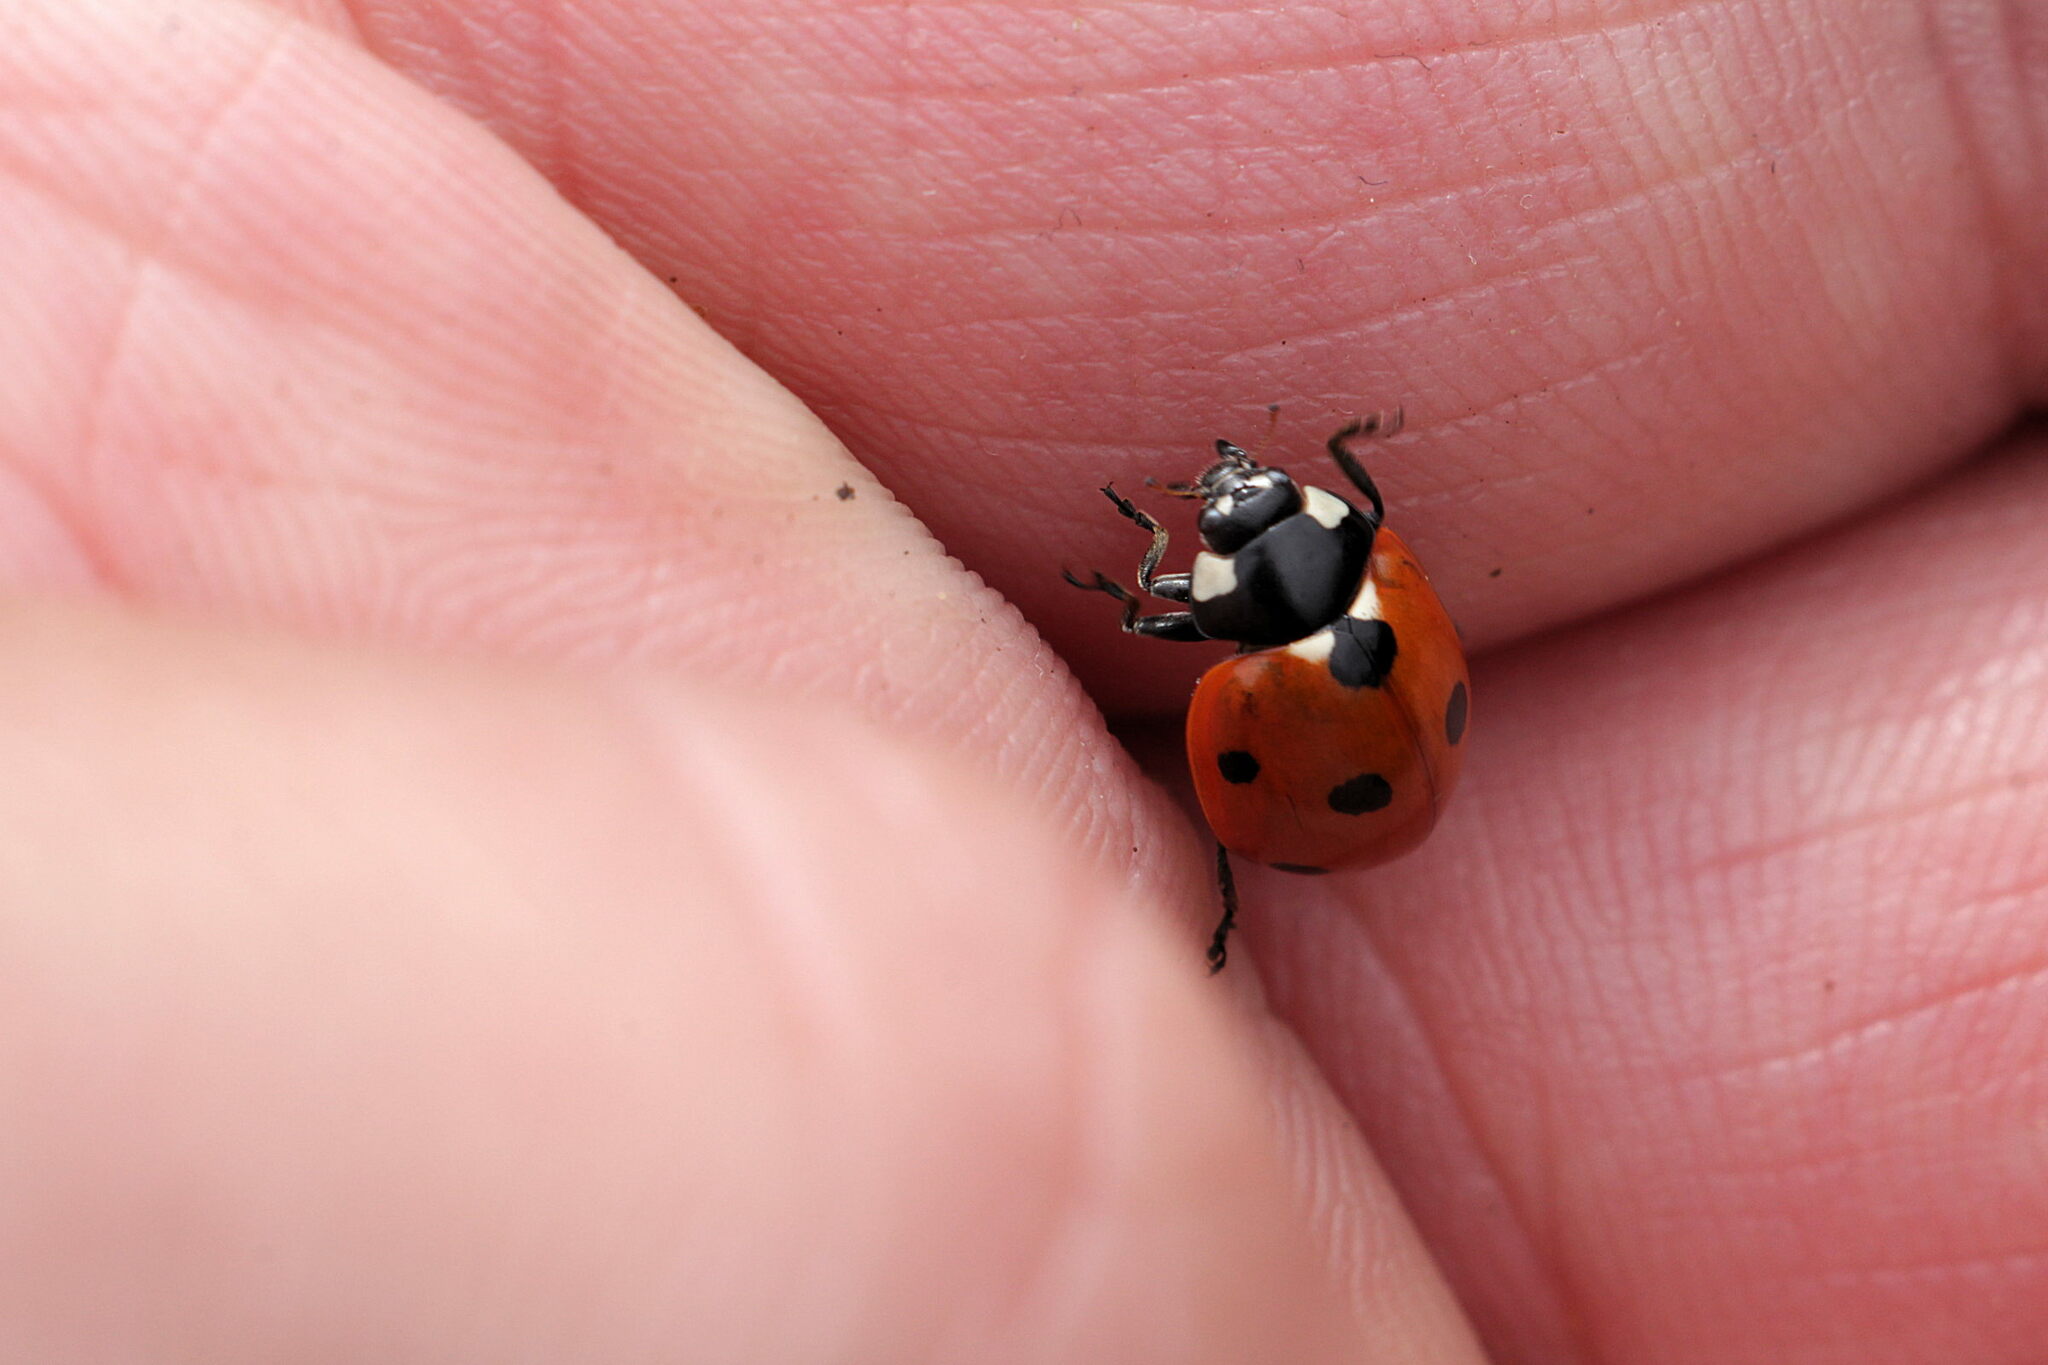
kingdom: Animalia
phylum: Arthropoda
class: Insecta
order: Coleoptera
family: Coccinellidae
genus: Coccinella
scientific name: Coccinella septempunctata
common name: Sevenspotted lady beetle
